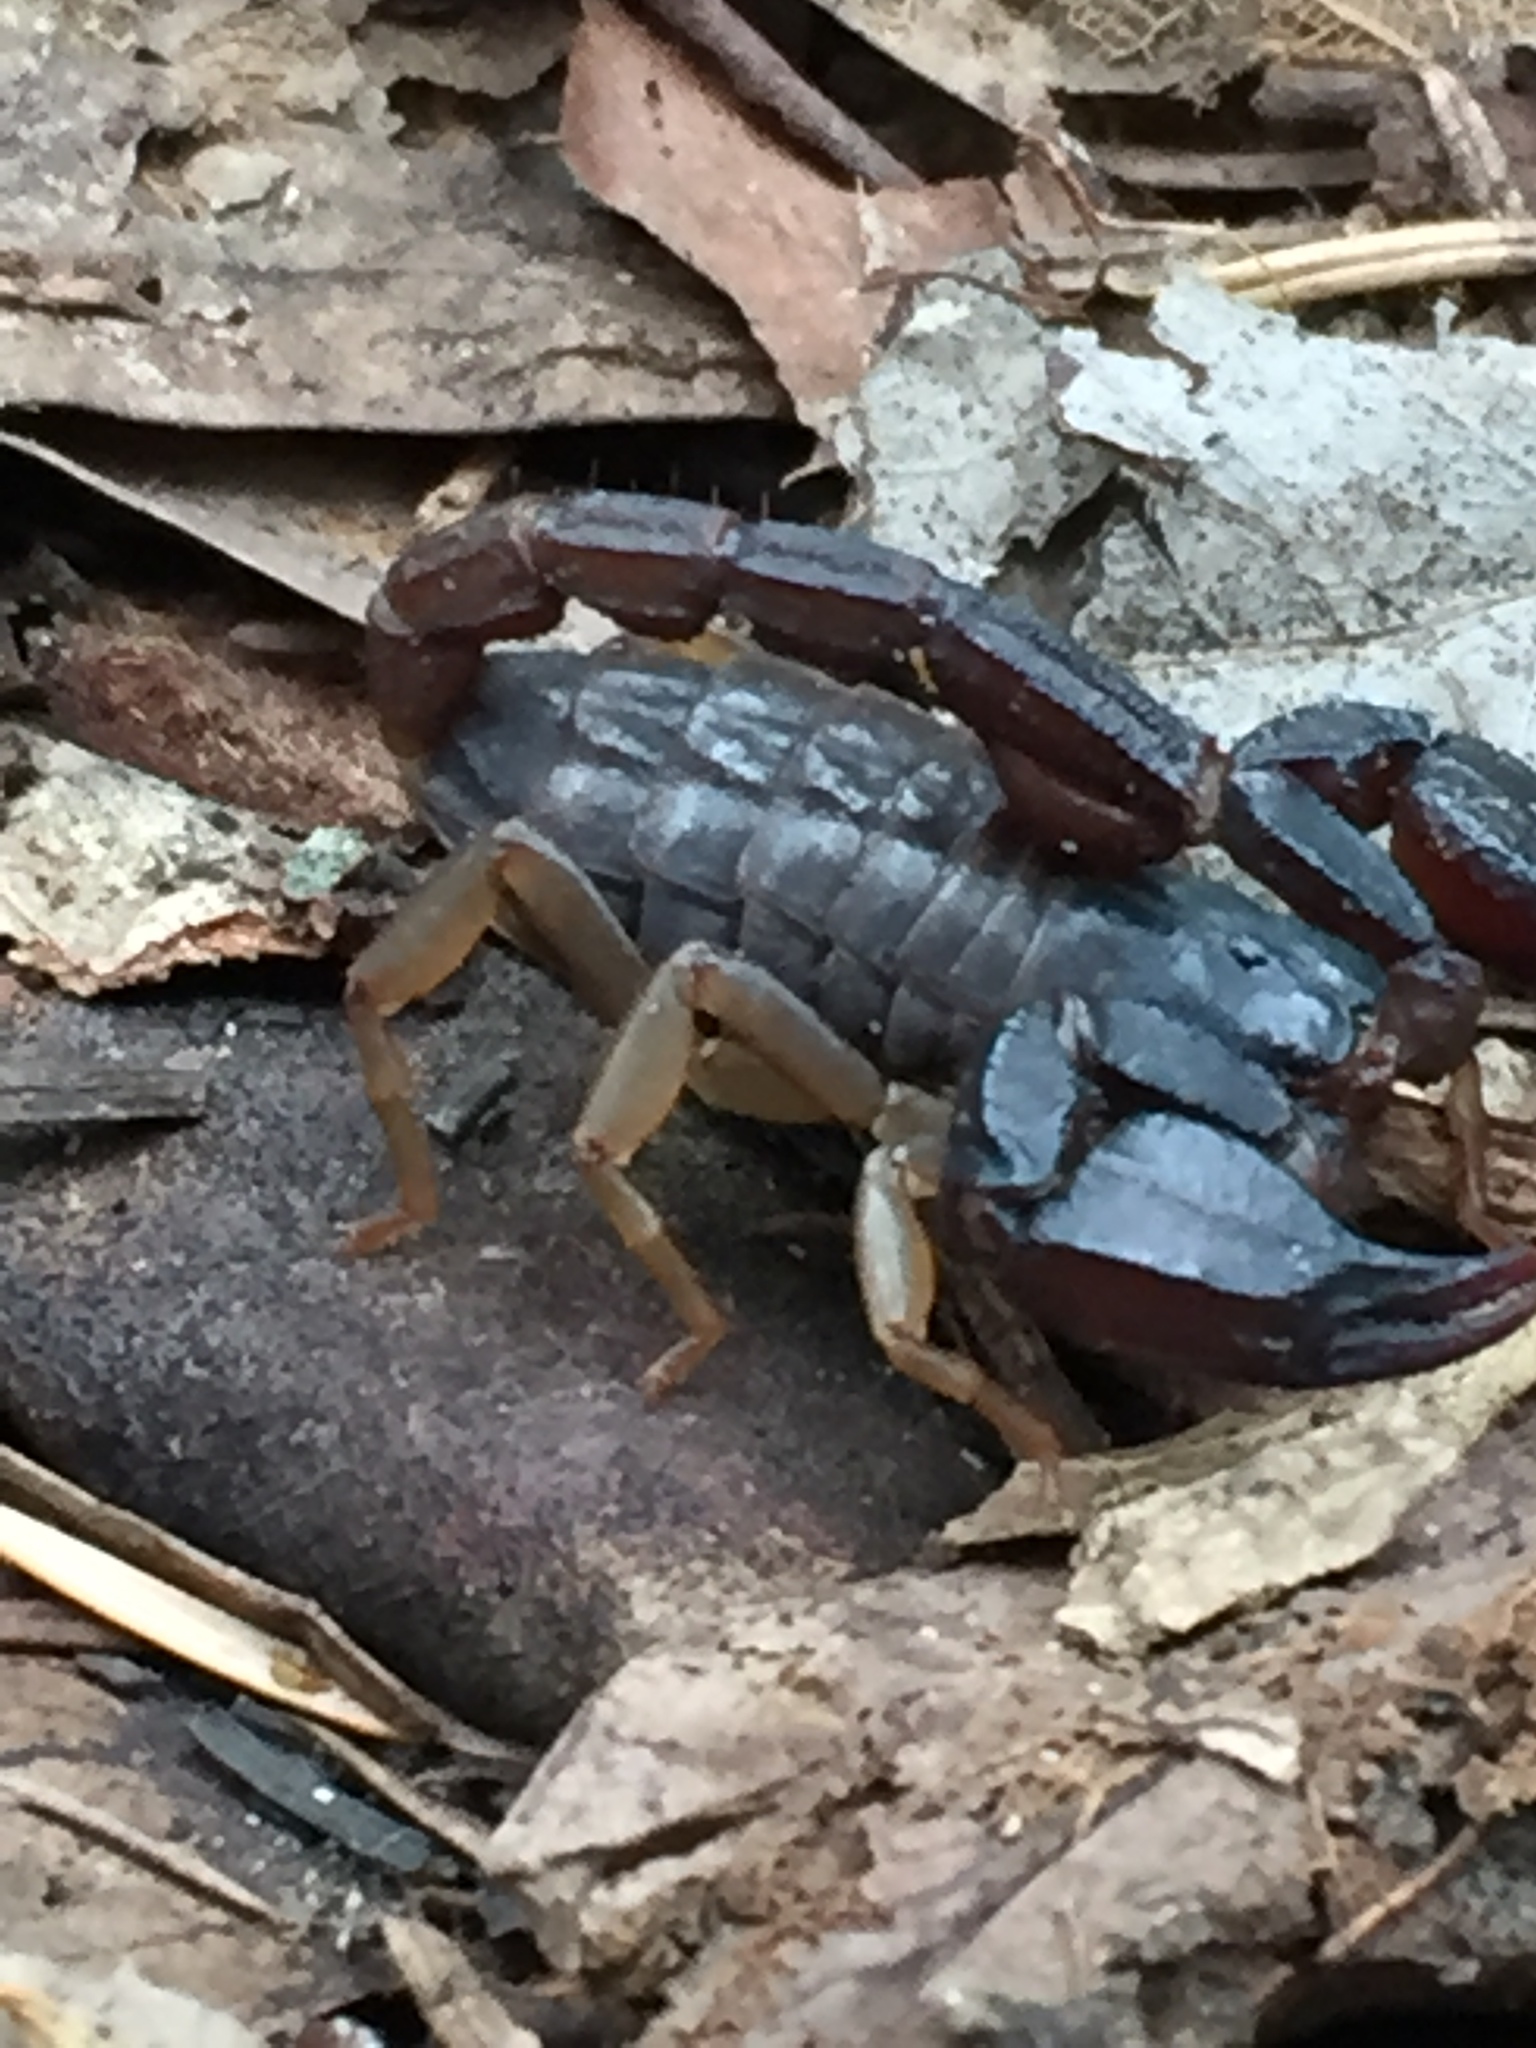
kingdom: Animalia
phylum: Arthropoda
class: Arachnida
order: Scorpiones
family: Chactidae
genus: Uroctonus
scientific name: Uroctonus mordax
